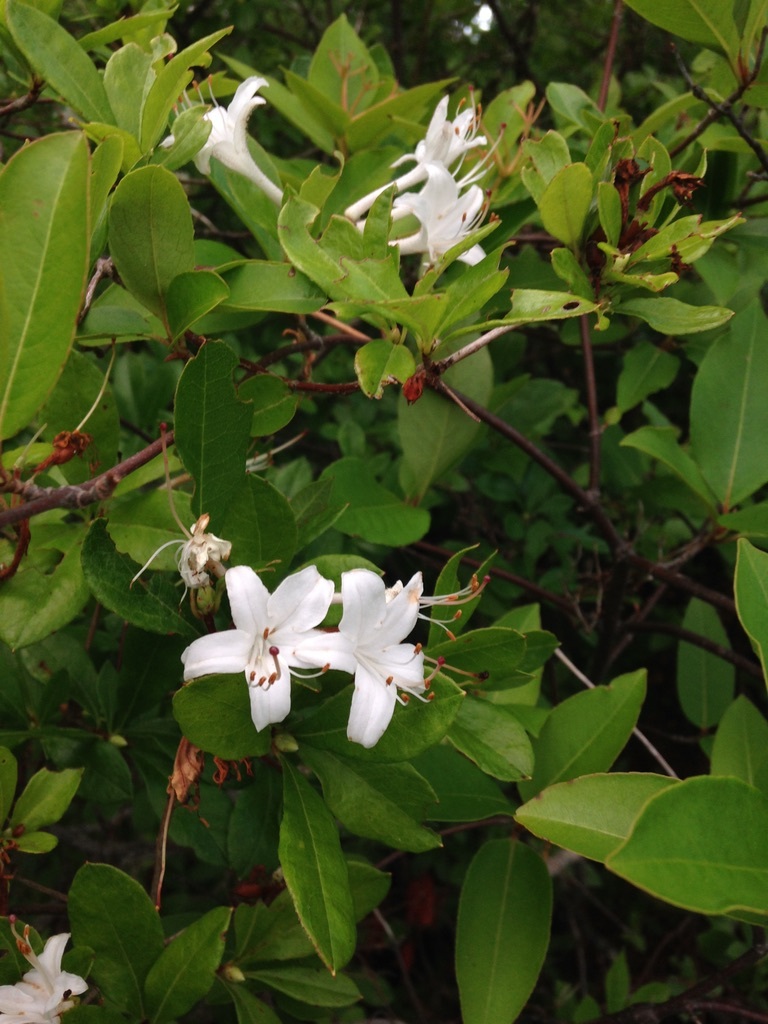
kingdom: Plantae
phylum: Tracheophyta
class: Magnoliopsida
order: Ericales
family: Ericaceae
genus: Rhododendron
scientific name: Rhododendron viscosum
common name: Clammy azalea
